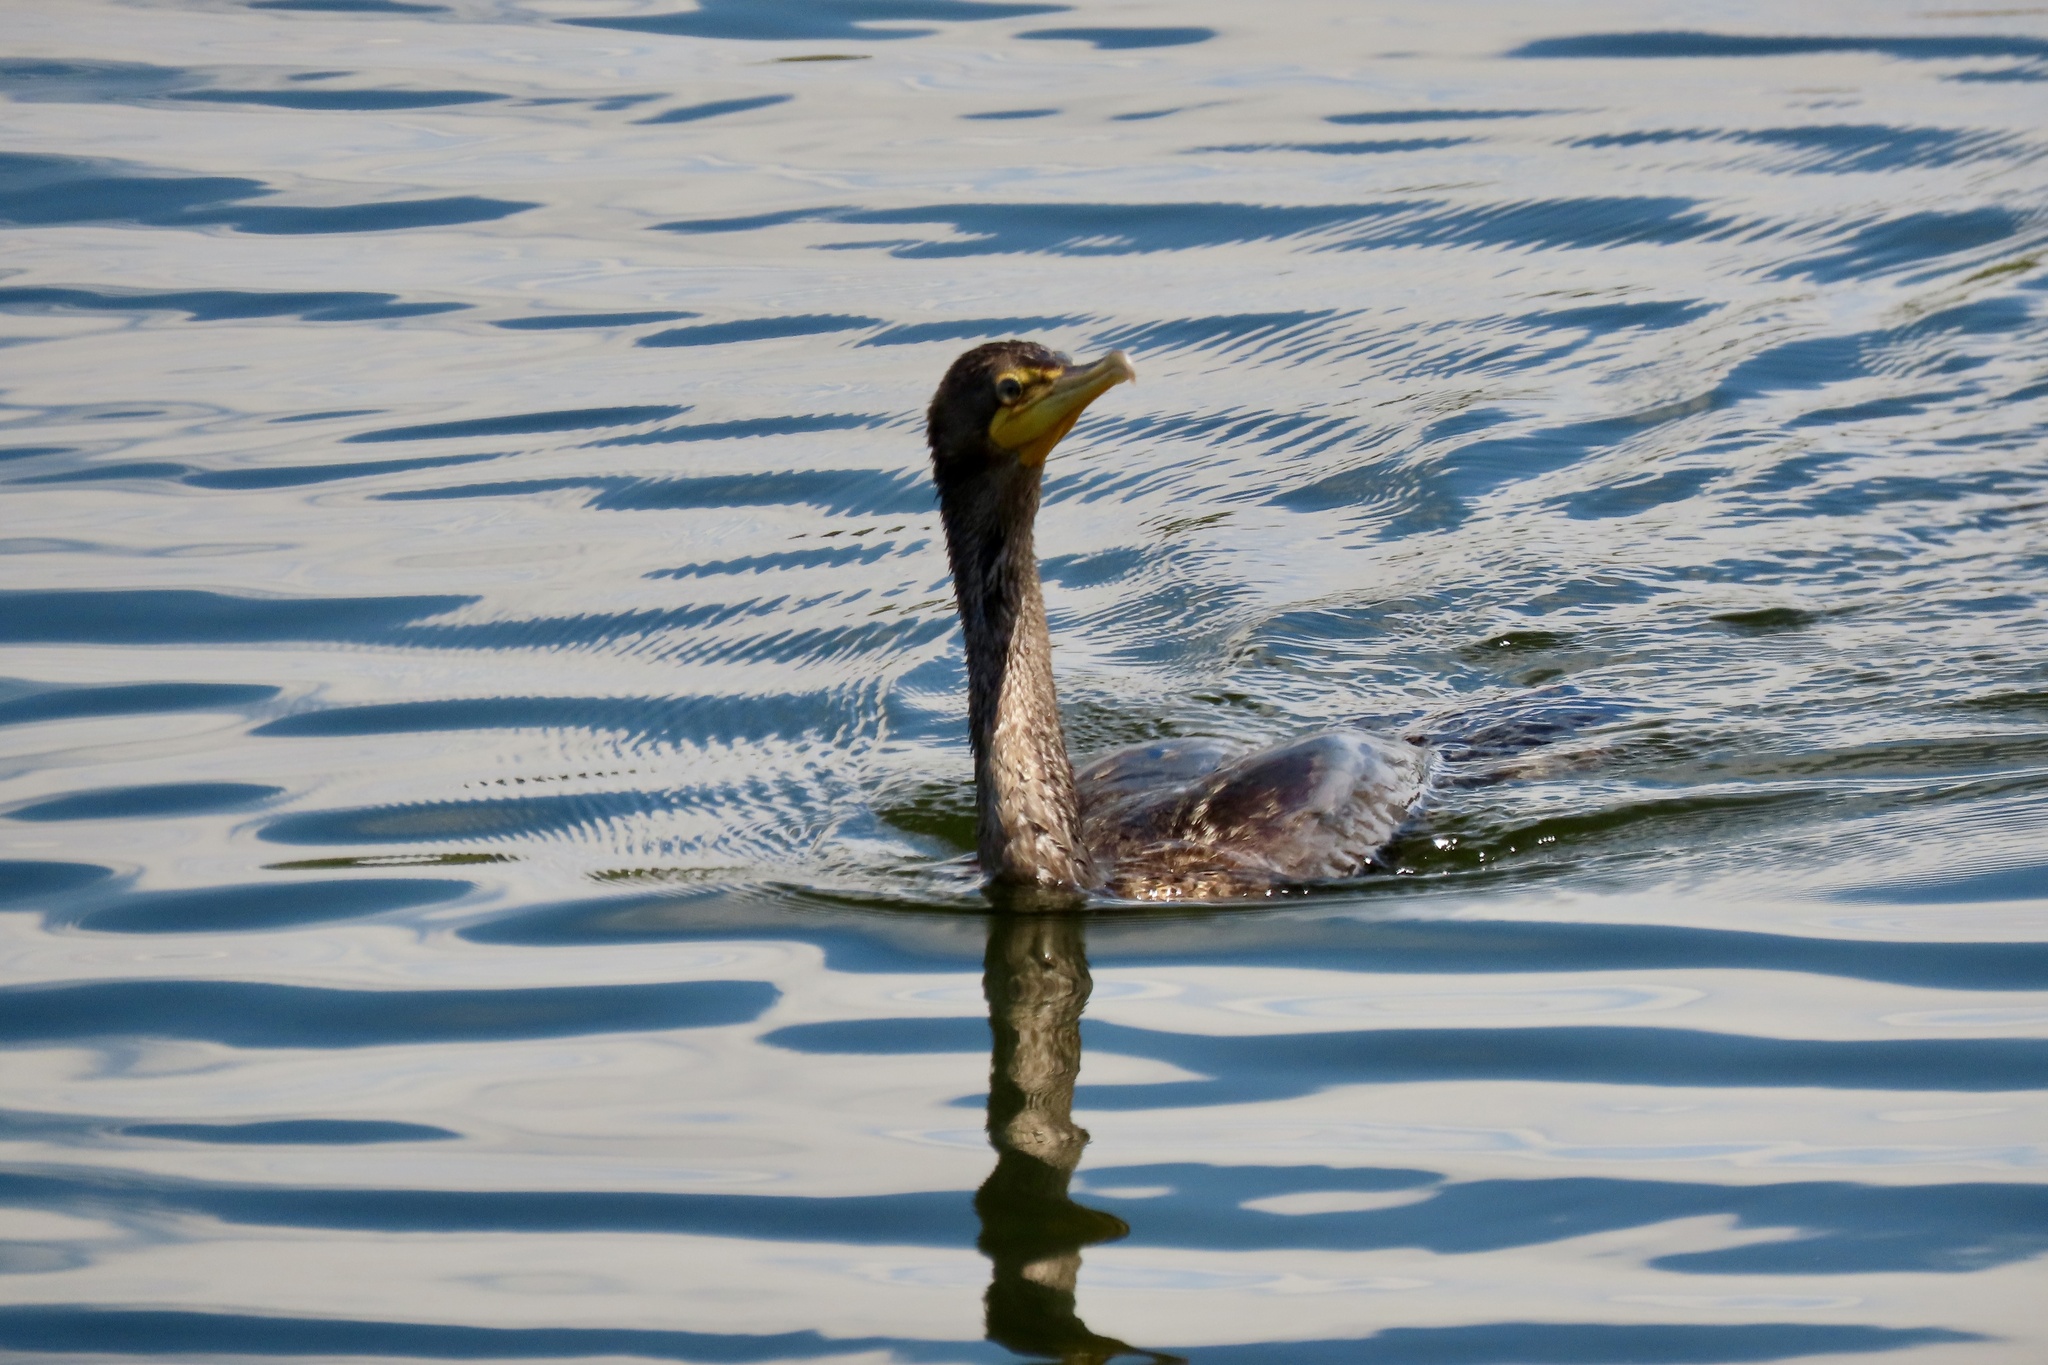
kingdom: Animalia
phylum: Chordata
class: Aves
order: Suliformes
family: Phalacrocoracidae
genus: Phalacrocorax
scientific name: Phalacrocorax auritus
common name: Double-crested cormorant
